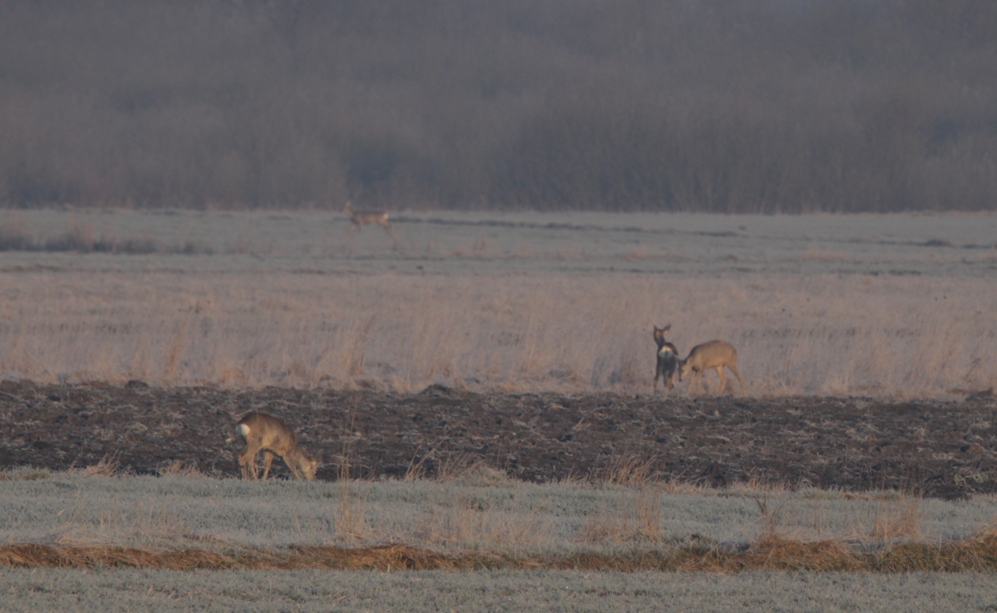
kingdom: Animalia
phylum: Chordata
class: Mammalia
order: Artiodactyla
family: Cervidae
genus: Capreolus
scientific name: Capreolus capreolus
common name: Western roe deer
